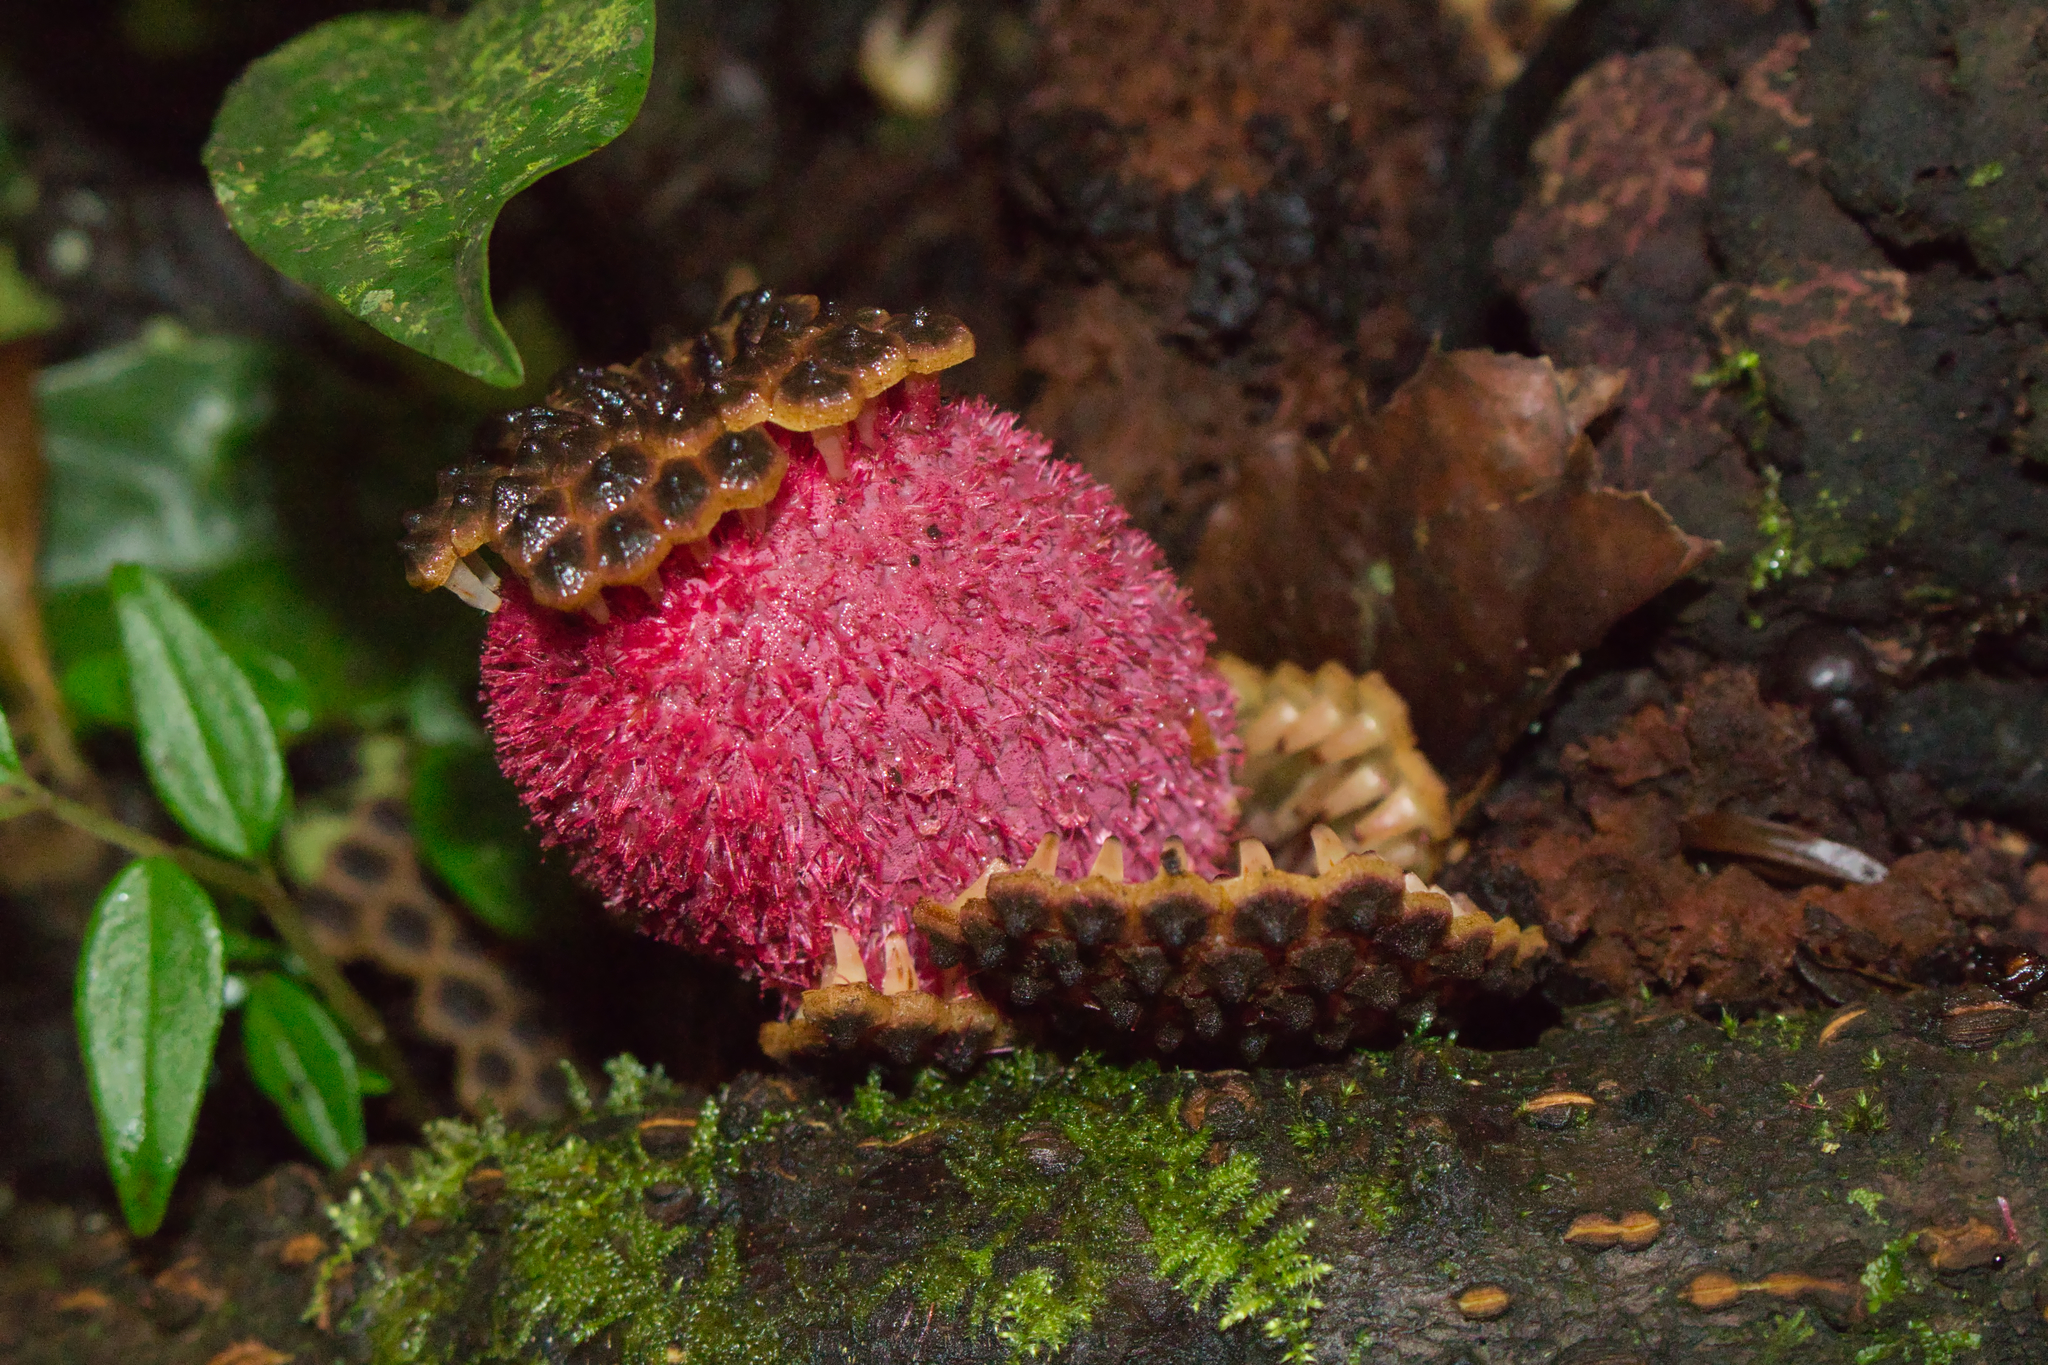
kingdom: Plantae
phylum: Tracheophyta
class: Magnoliopsida
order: Santalales
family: Balanophoraceae
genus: Corynaea
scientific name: Corynaea crassa
